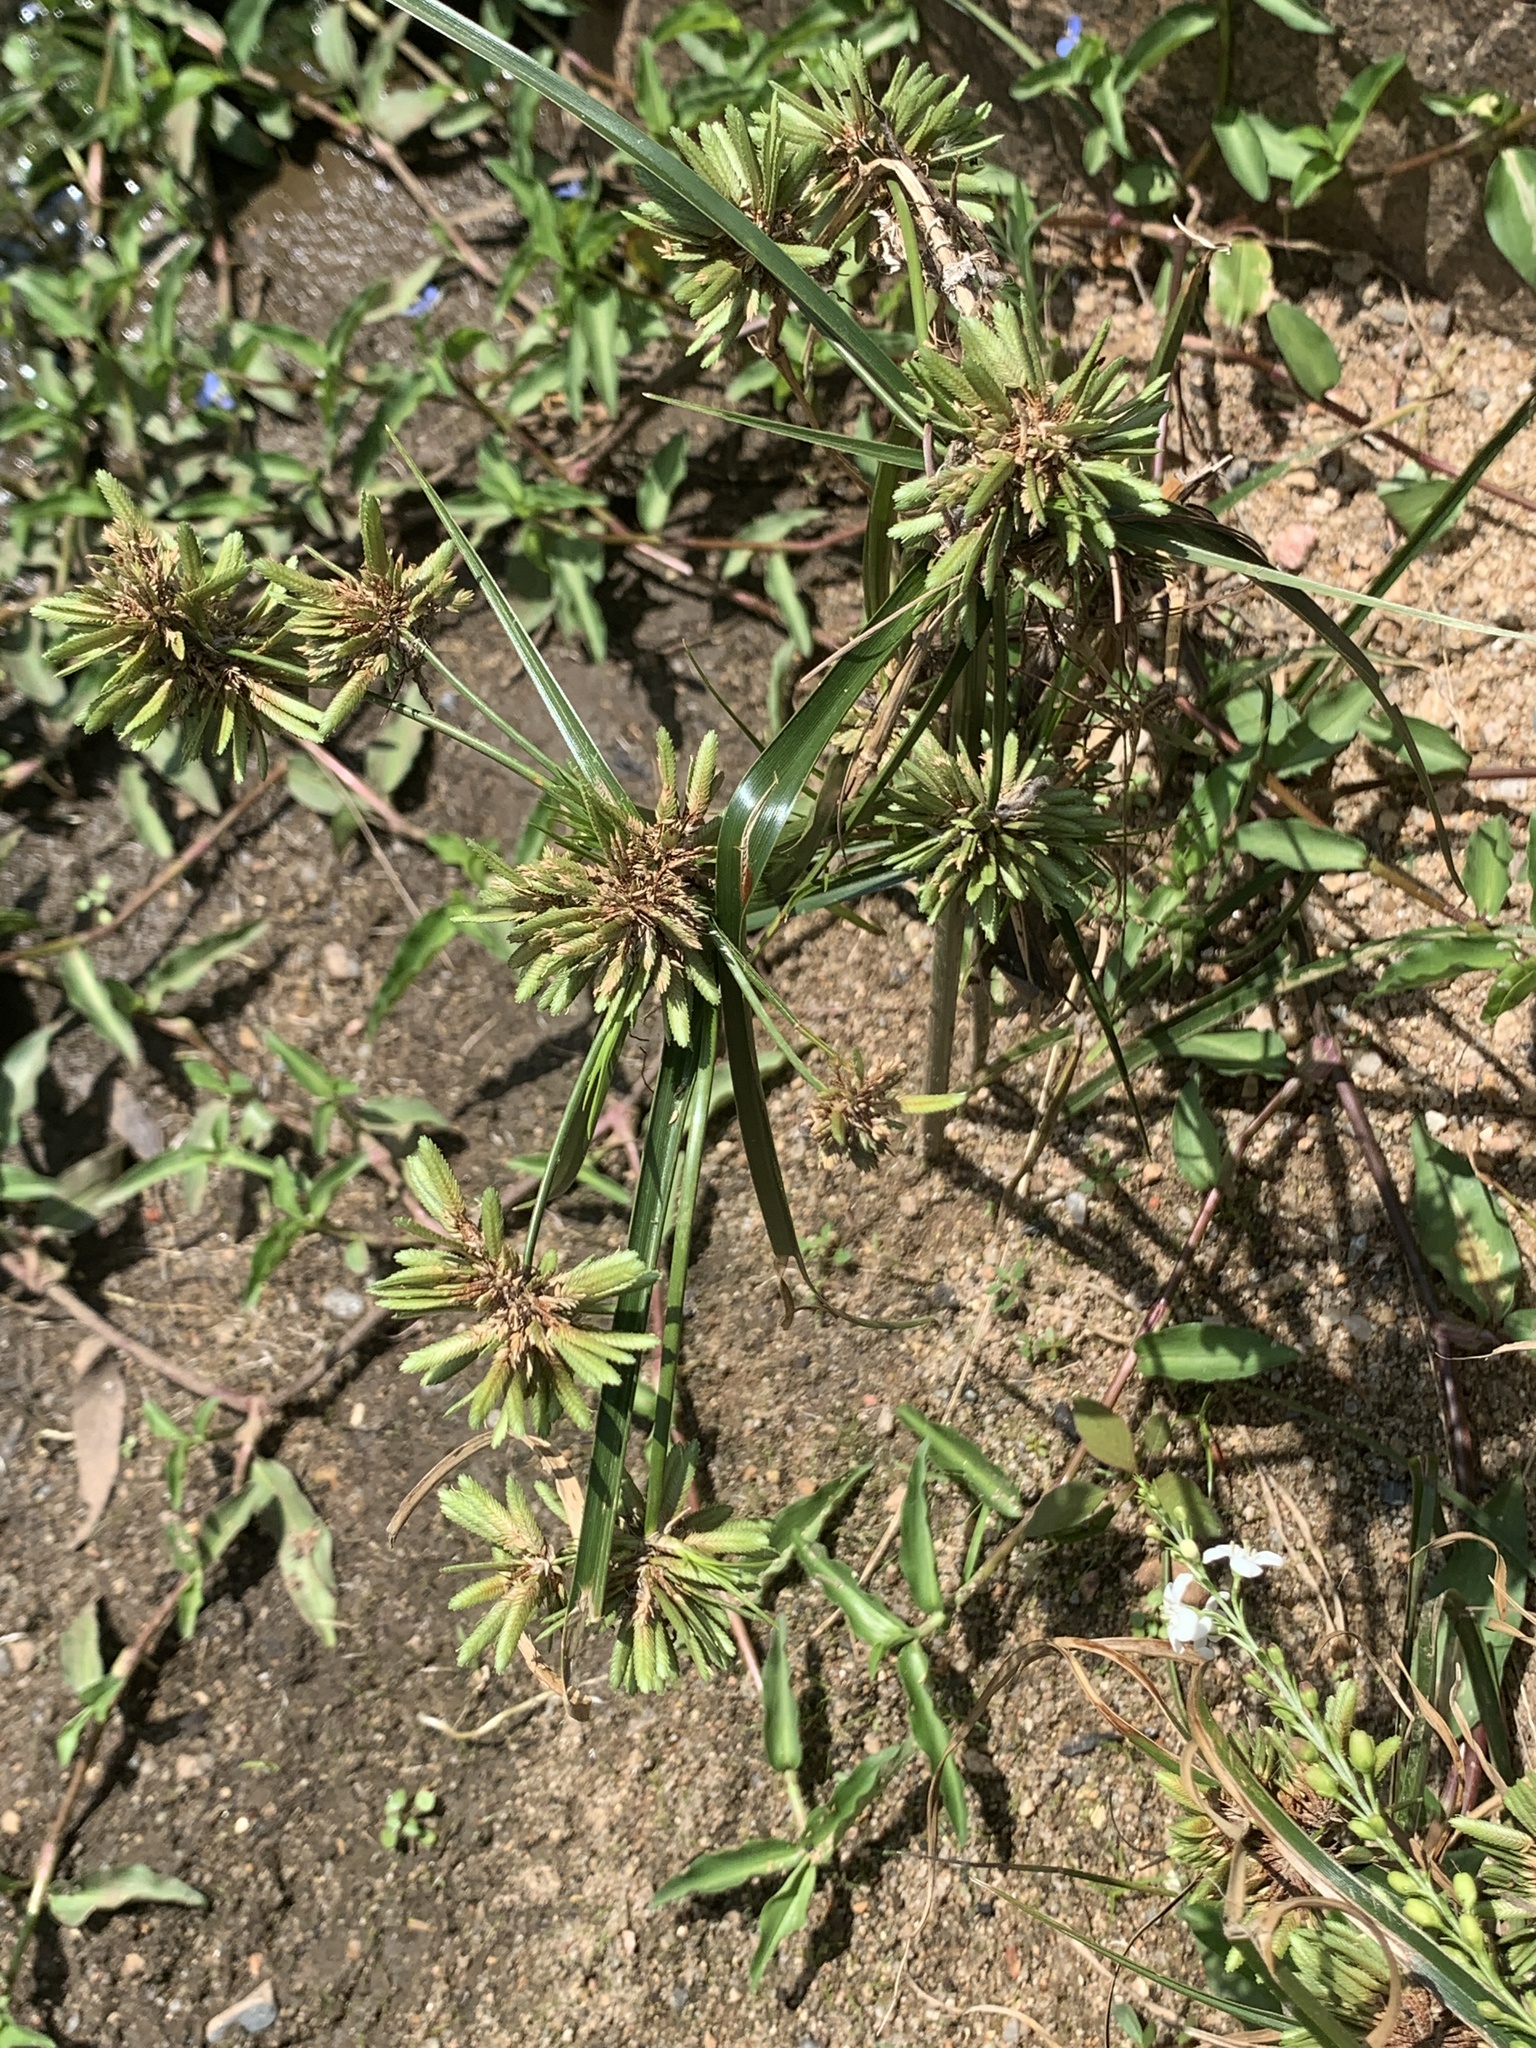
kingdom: Plantae
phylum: Tracheophyta
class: Liliopsida
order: Poales
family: Cyperaceae
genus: Cyperus
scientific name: Cyperus eragrostis
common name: Tall flatsedge
